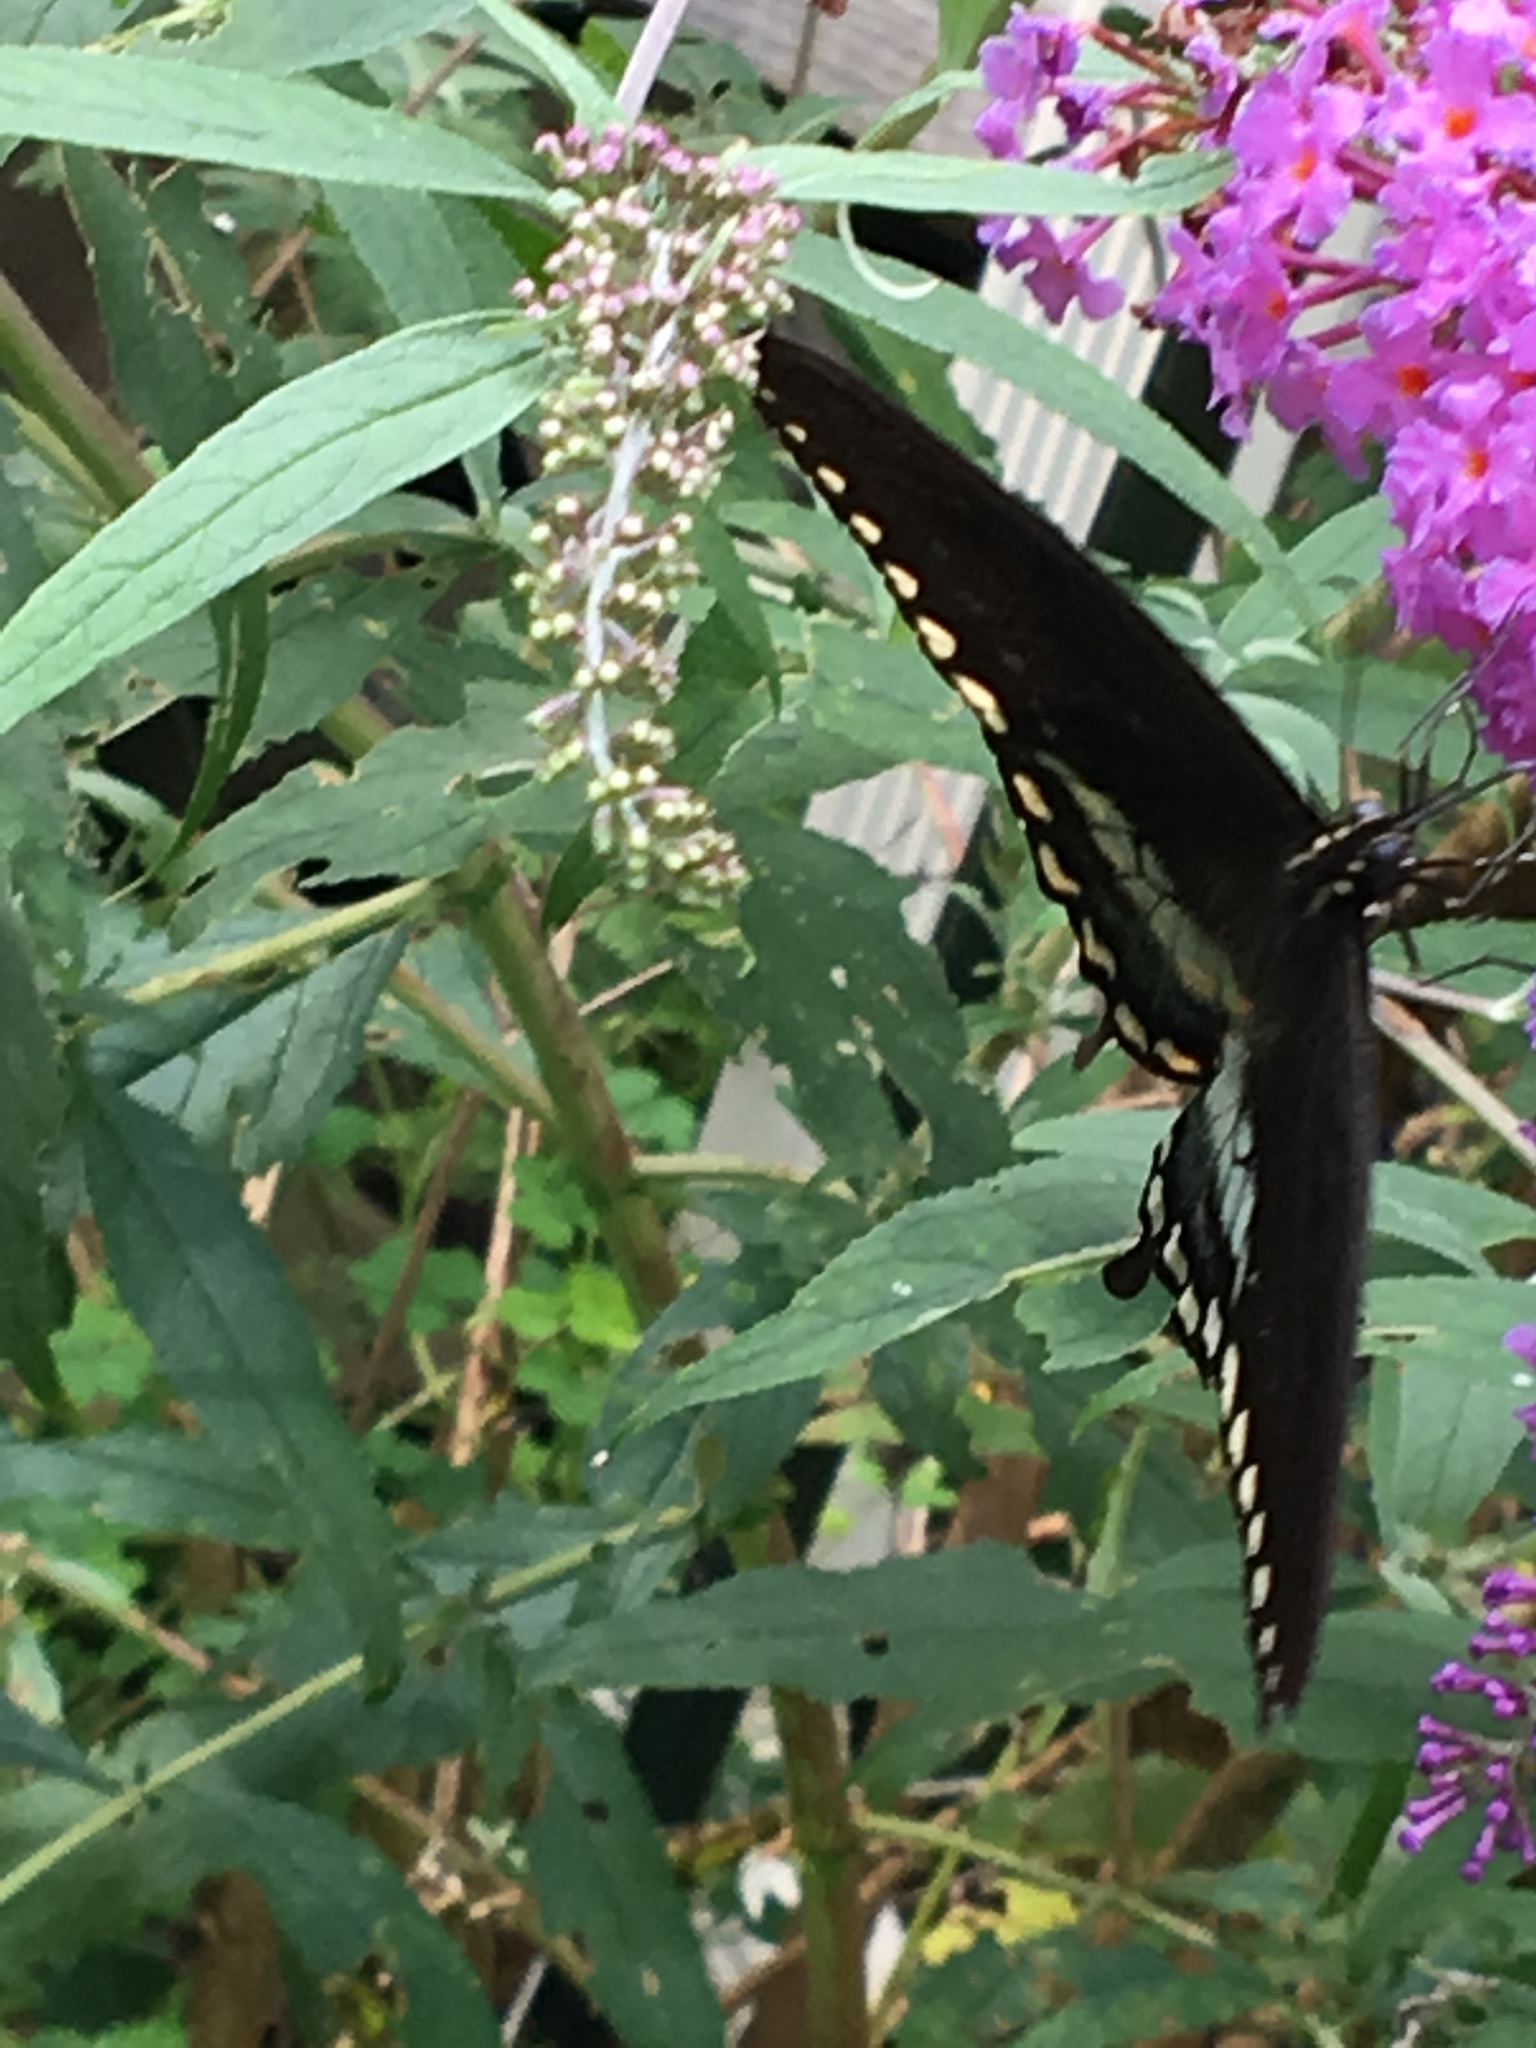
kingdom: Animalia
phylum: Arthropoda
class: Insecta
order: Lepidoptera
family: Papilionidae
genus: Papilio
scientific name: Papilio troilus
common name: Spicebush swallowtail
